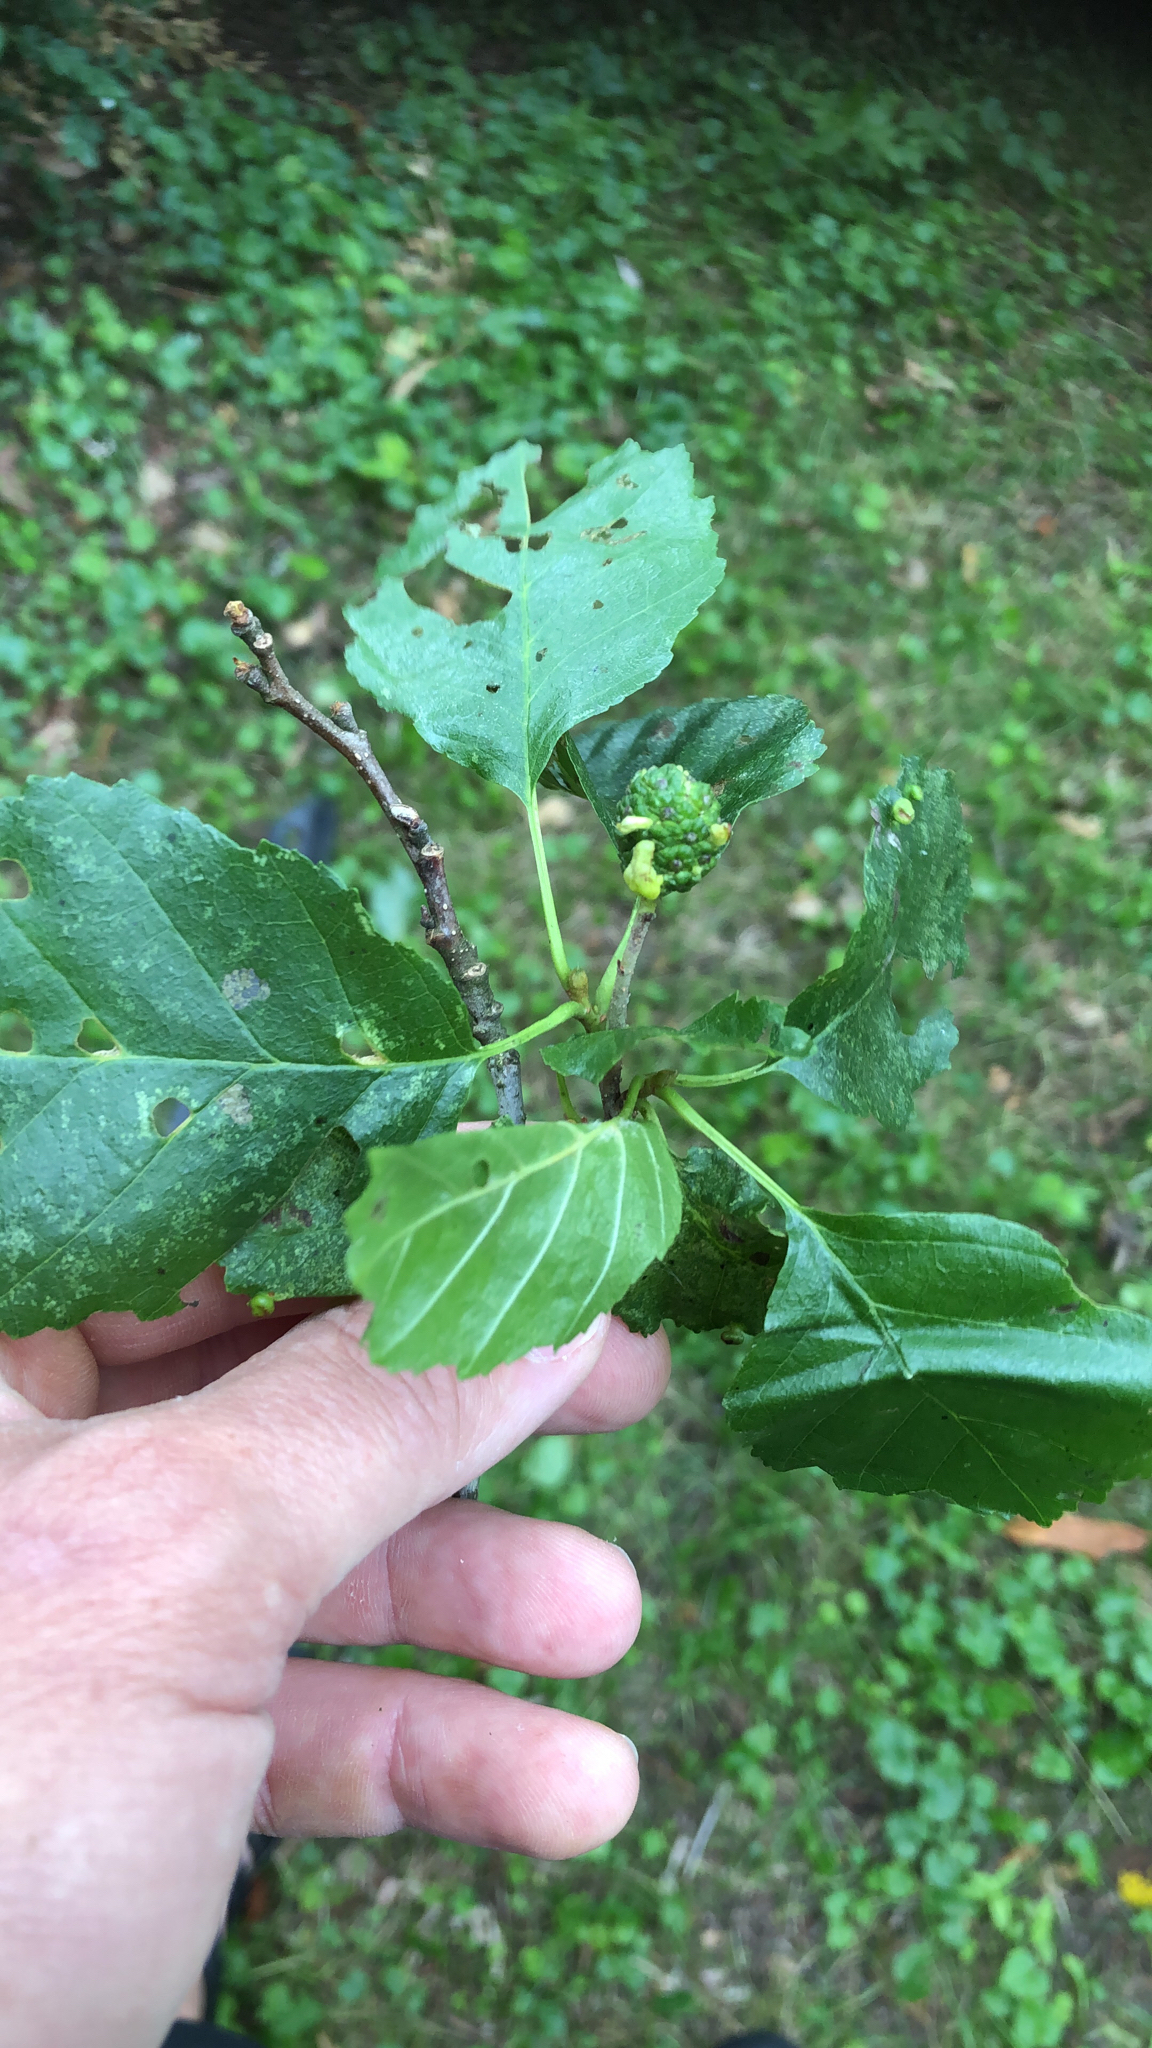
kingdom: Plantae
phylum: Tracheophyta
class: Magnoliopsida
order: Fagales
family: Betulaceae
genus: Alnus
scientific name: Alnus glutinosa
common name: Black alder
